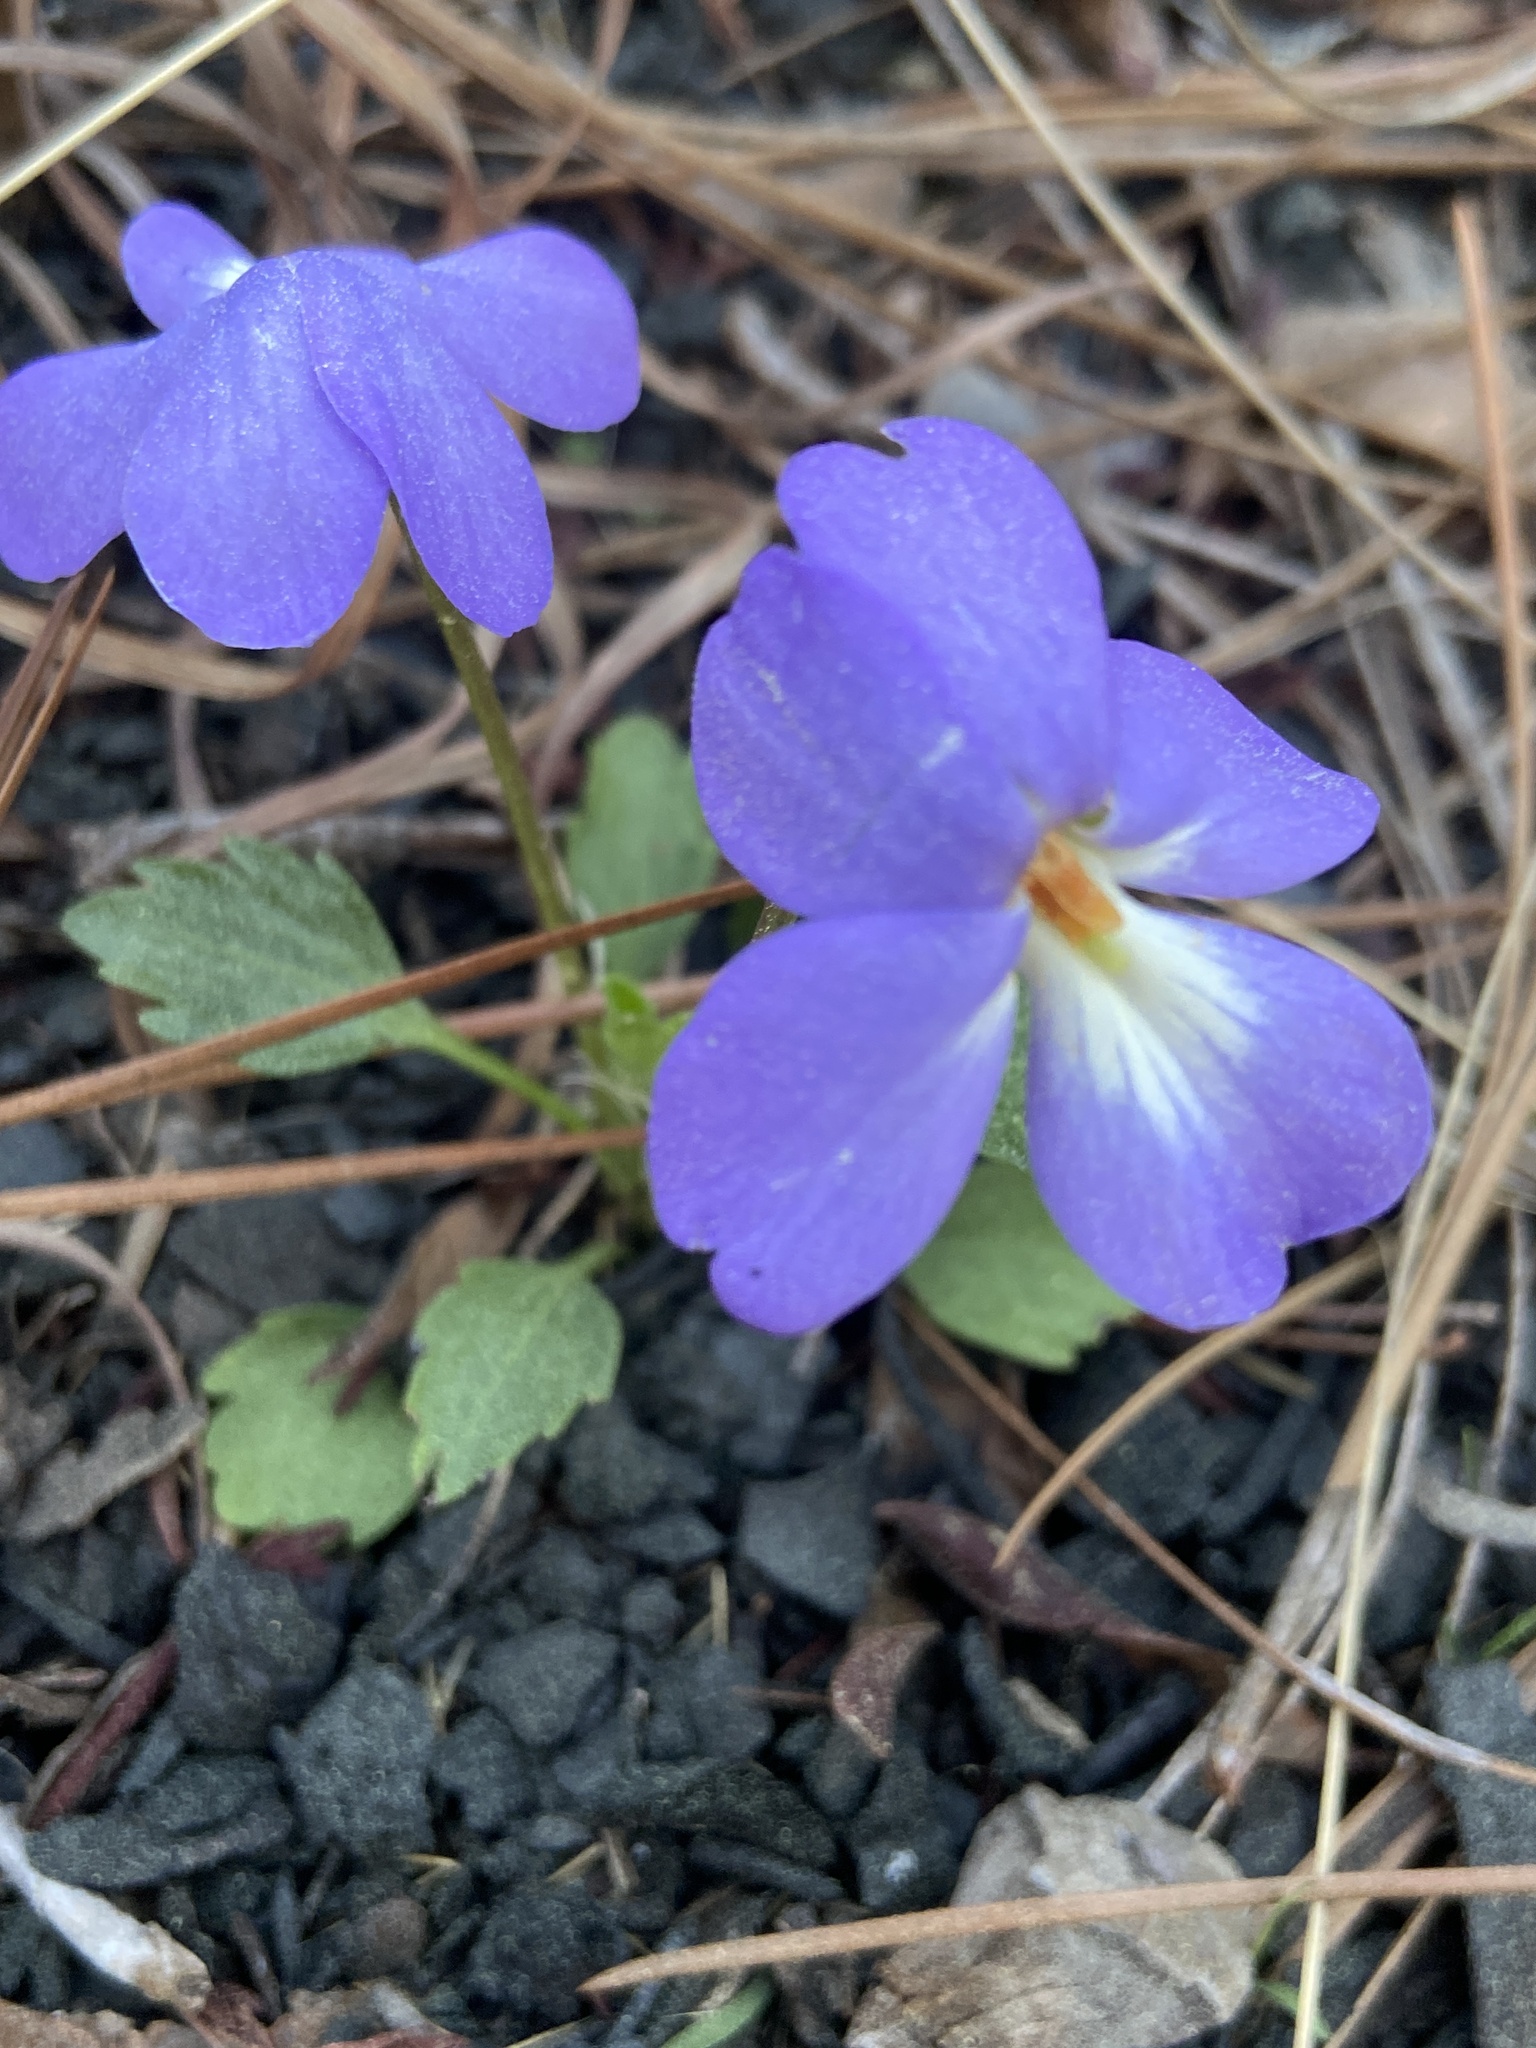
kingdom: Plantae
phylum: Tracheophyta
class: Magnoliopsida
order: Malpighiales
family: Violaceae
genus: Viola
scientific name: Viola pedata
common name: Pansy violet
